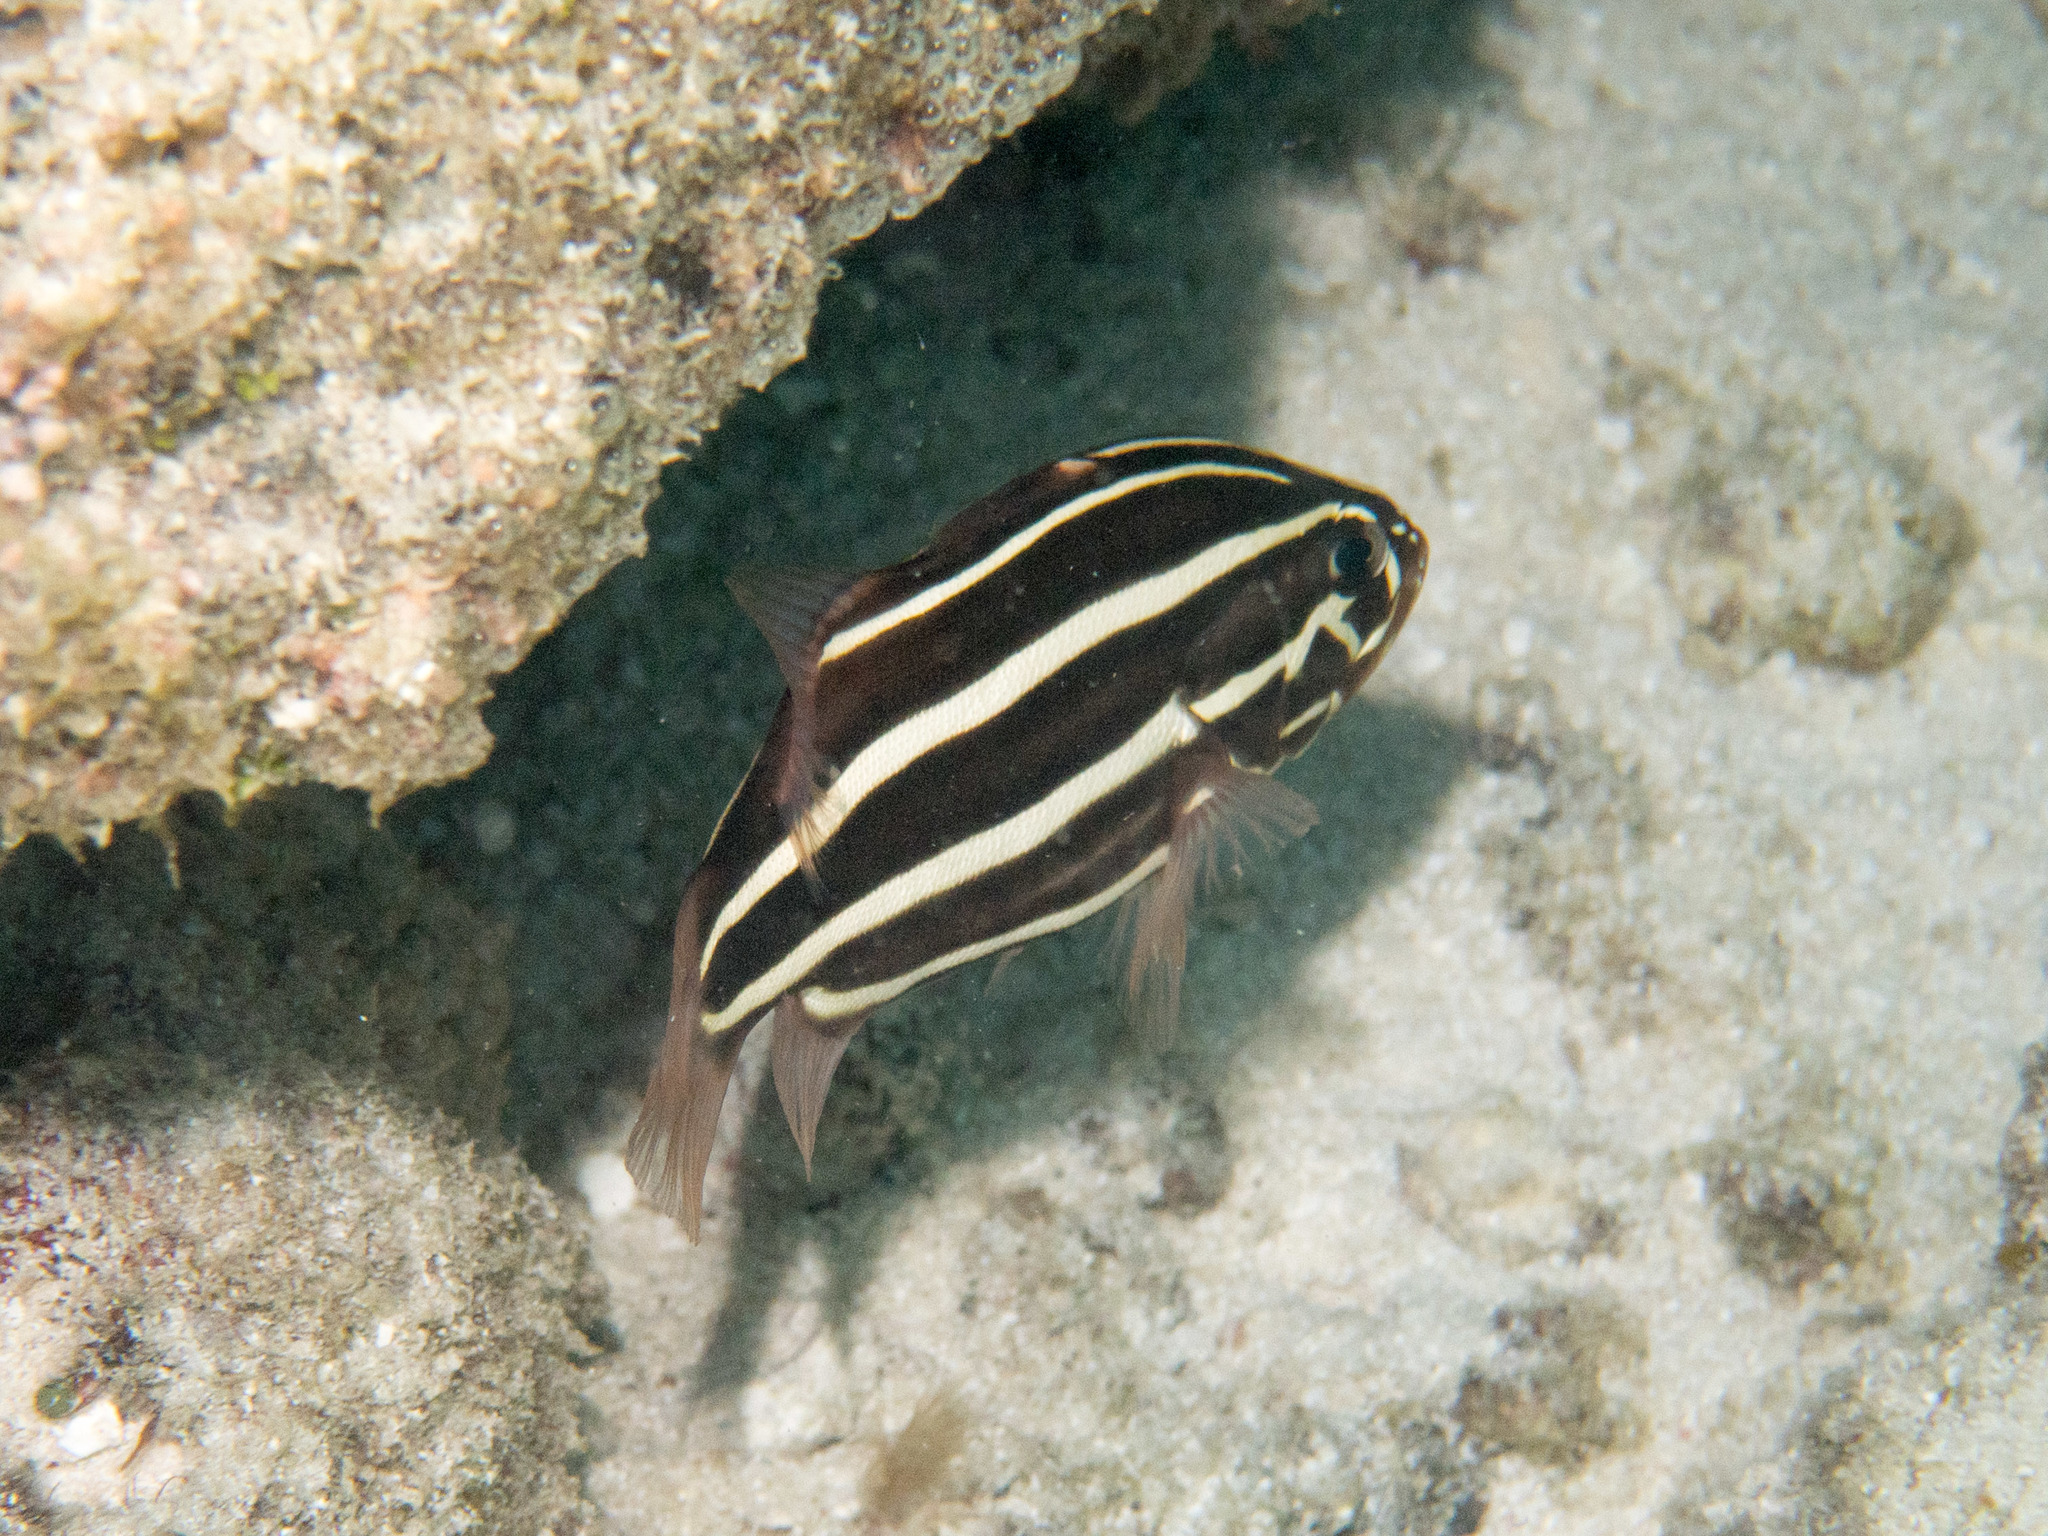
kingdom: Animalia
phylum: Chordata
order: Perciformes
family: Serranidae
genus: Grammistes
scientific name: Grammistes sexlineatus
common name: Sixline soapfish
